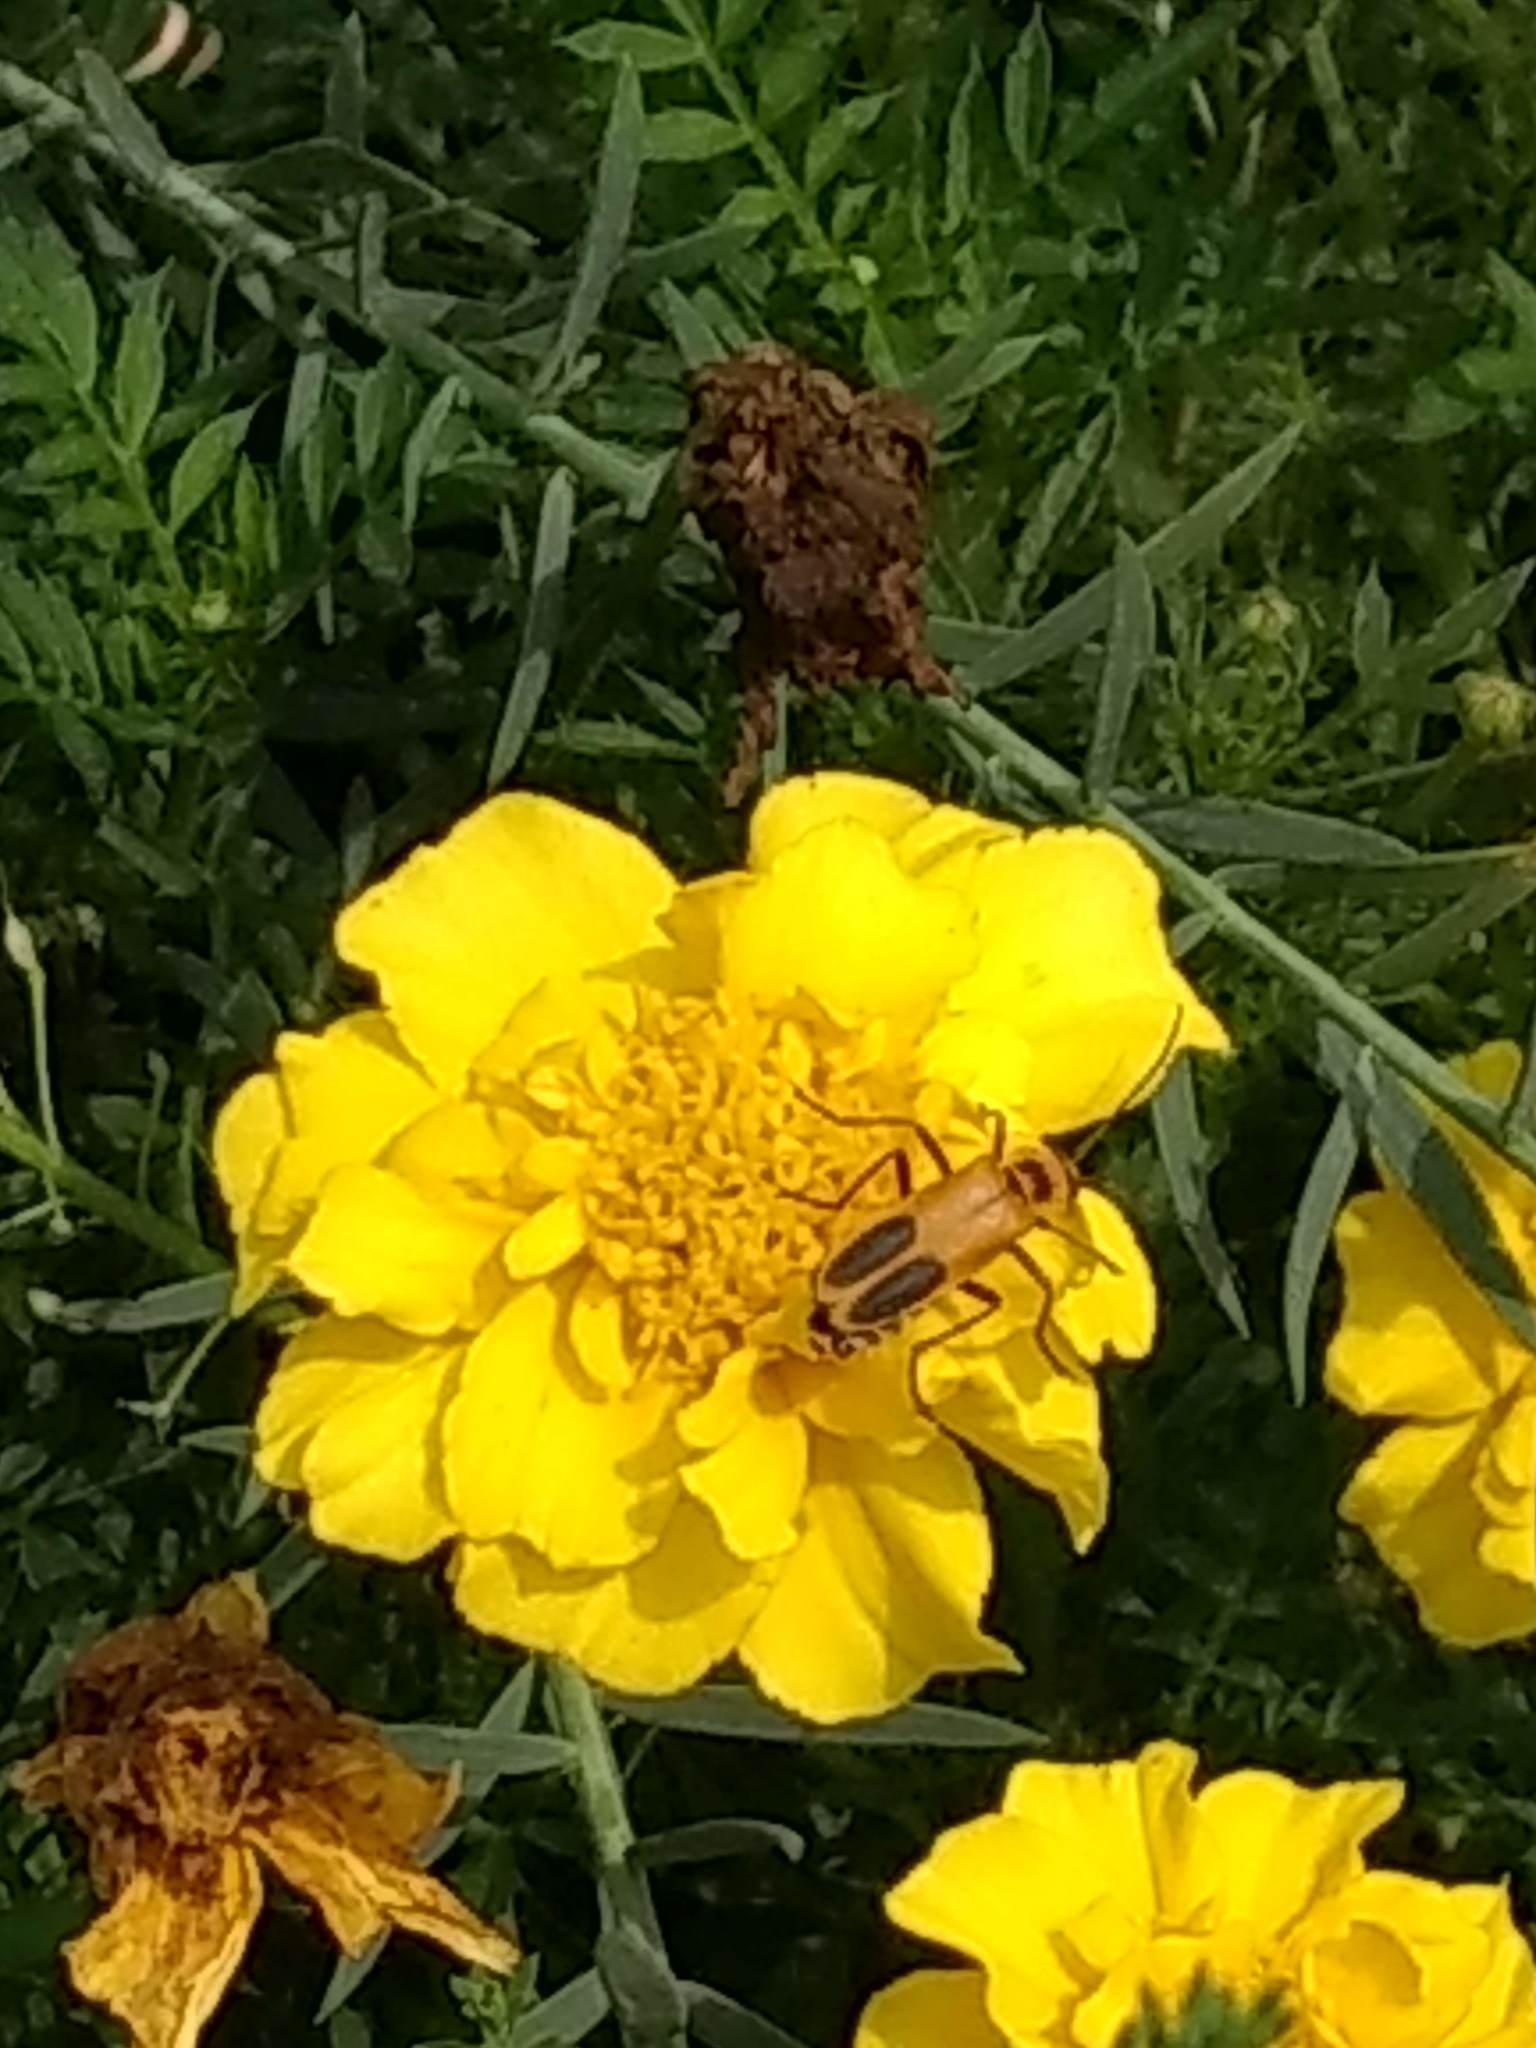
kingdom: Animalia
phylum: Arthropoda
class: Insecta
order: Coleoptera
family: Cantharidae
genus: Chauliognathus
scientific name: Chauliognathus pensylvanicus
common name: Goldenrod soldier beetle
